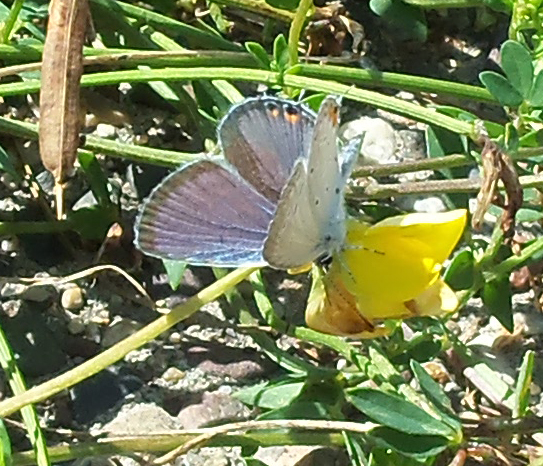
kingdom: Animalia
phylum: Arthropoda
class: Insecta
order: Lepidoptera
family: Lycaenidae
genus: Elkalyce
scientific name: Elkalyce comyntas
